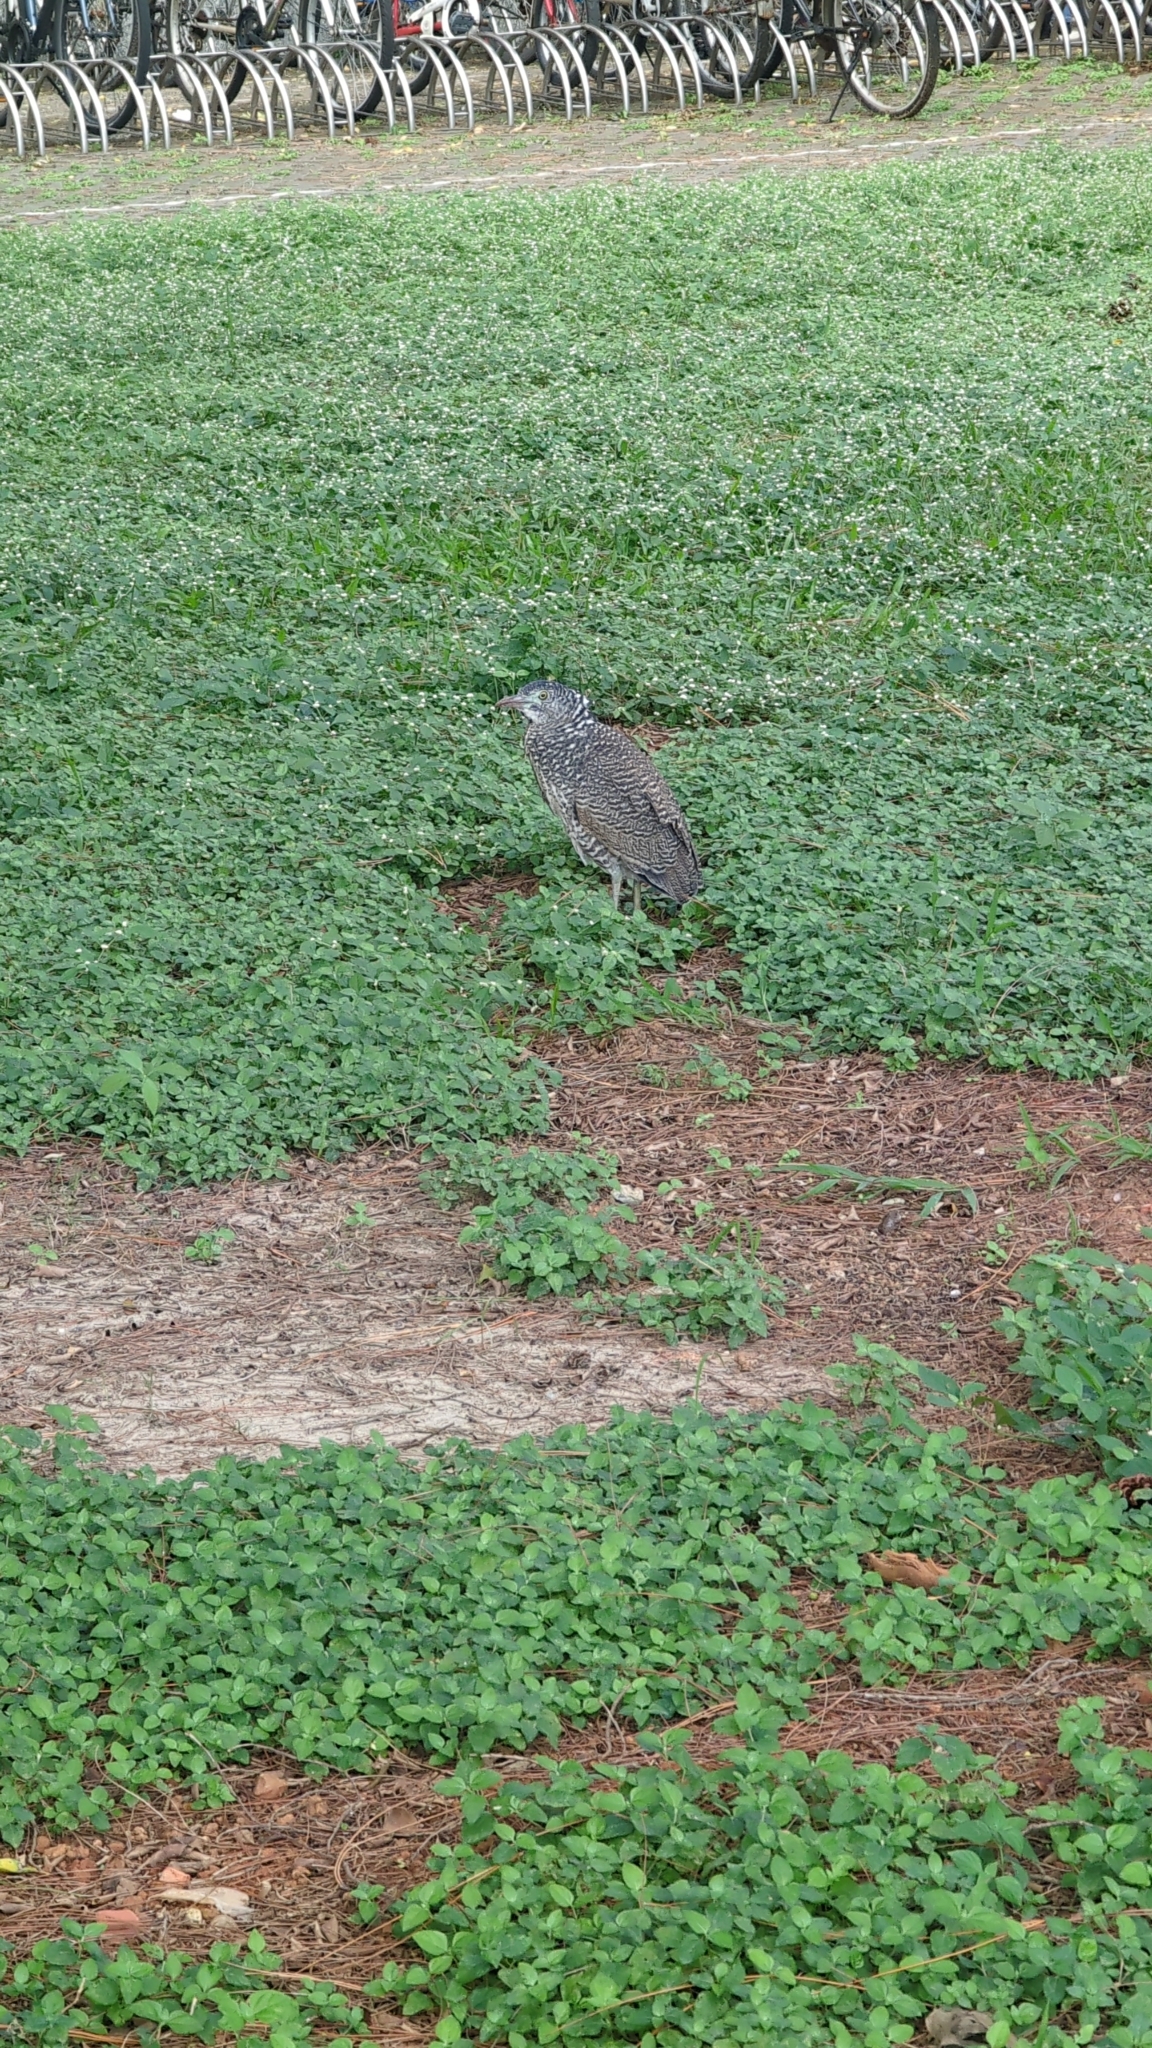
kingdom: Animalia
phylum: Chordata
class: Aves
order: Pelecaniformes
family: Ardeidae
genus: Gorsachius
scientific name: Gorsachius melanolophus
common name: Malayan night heron
